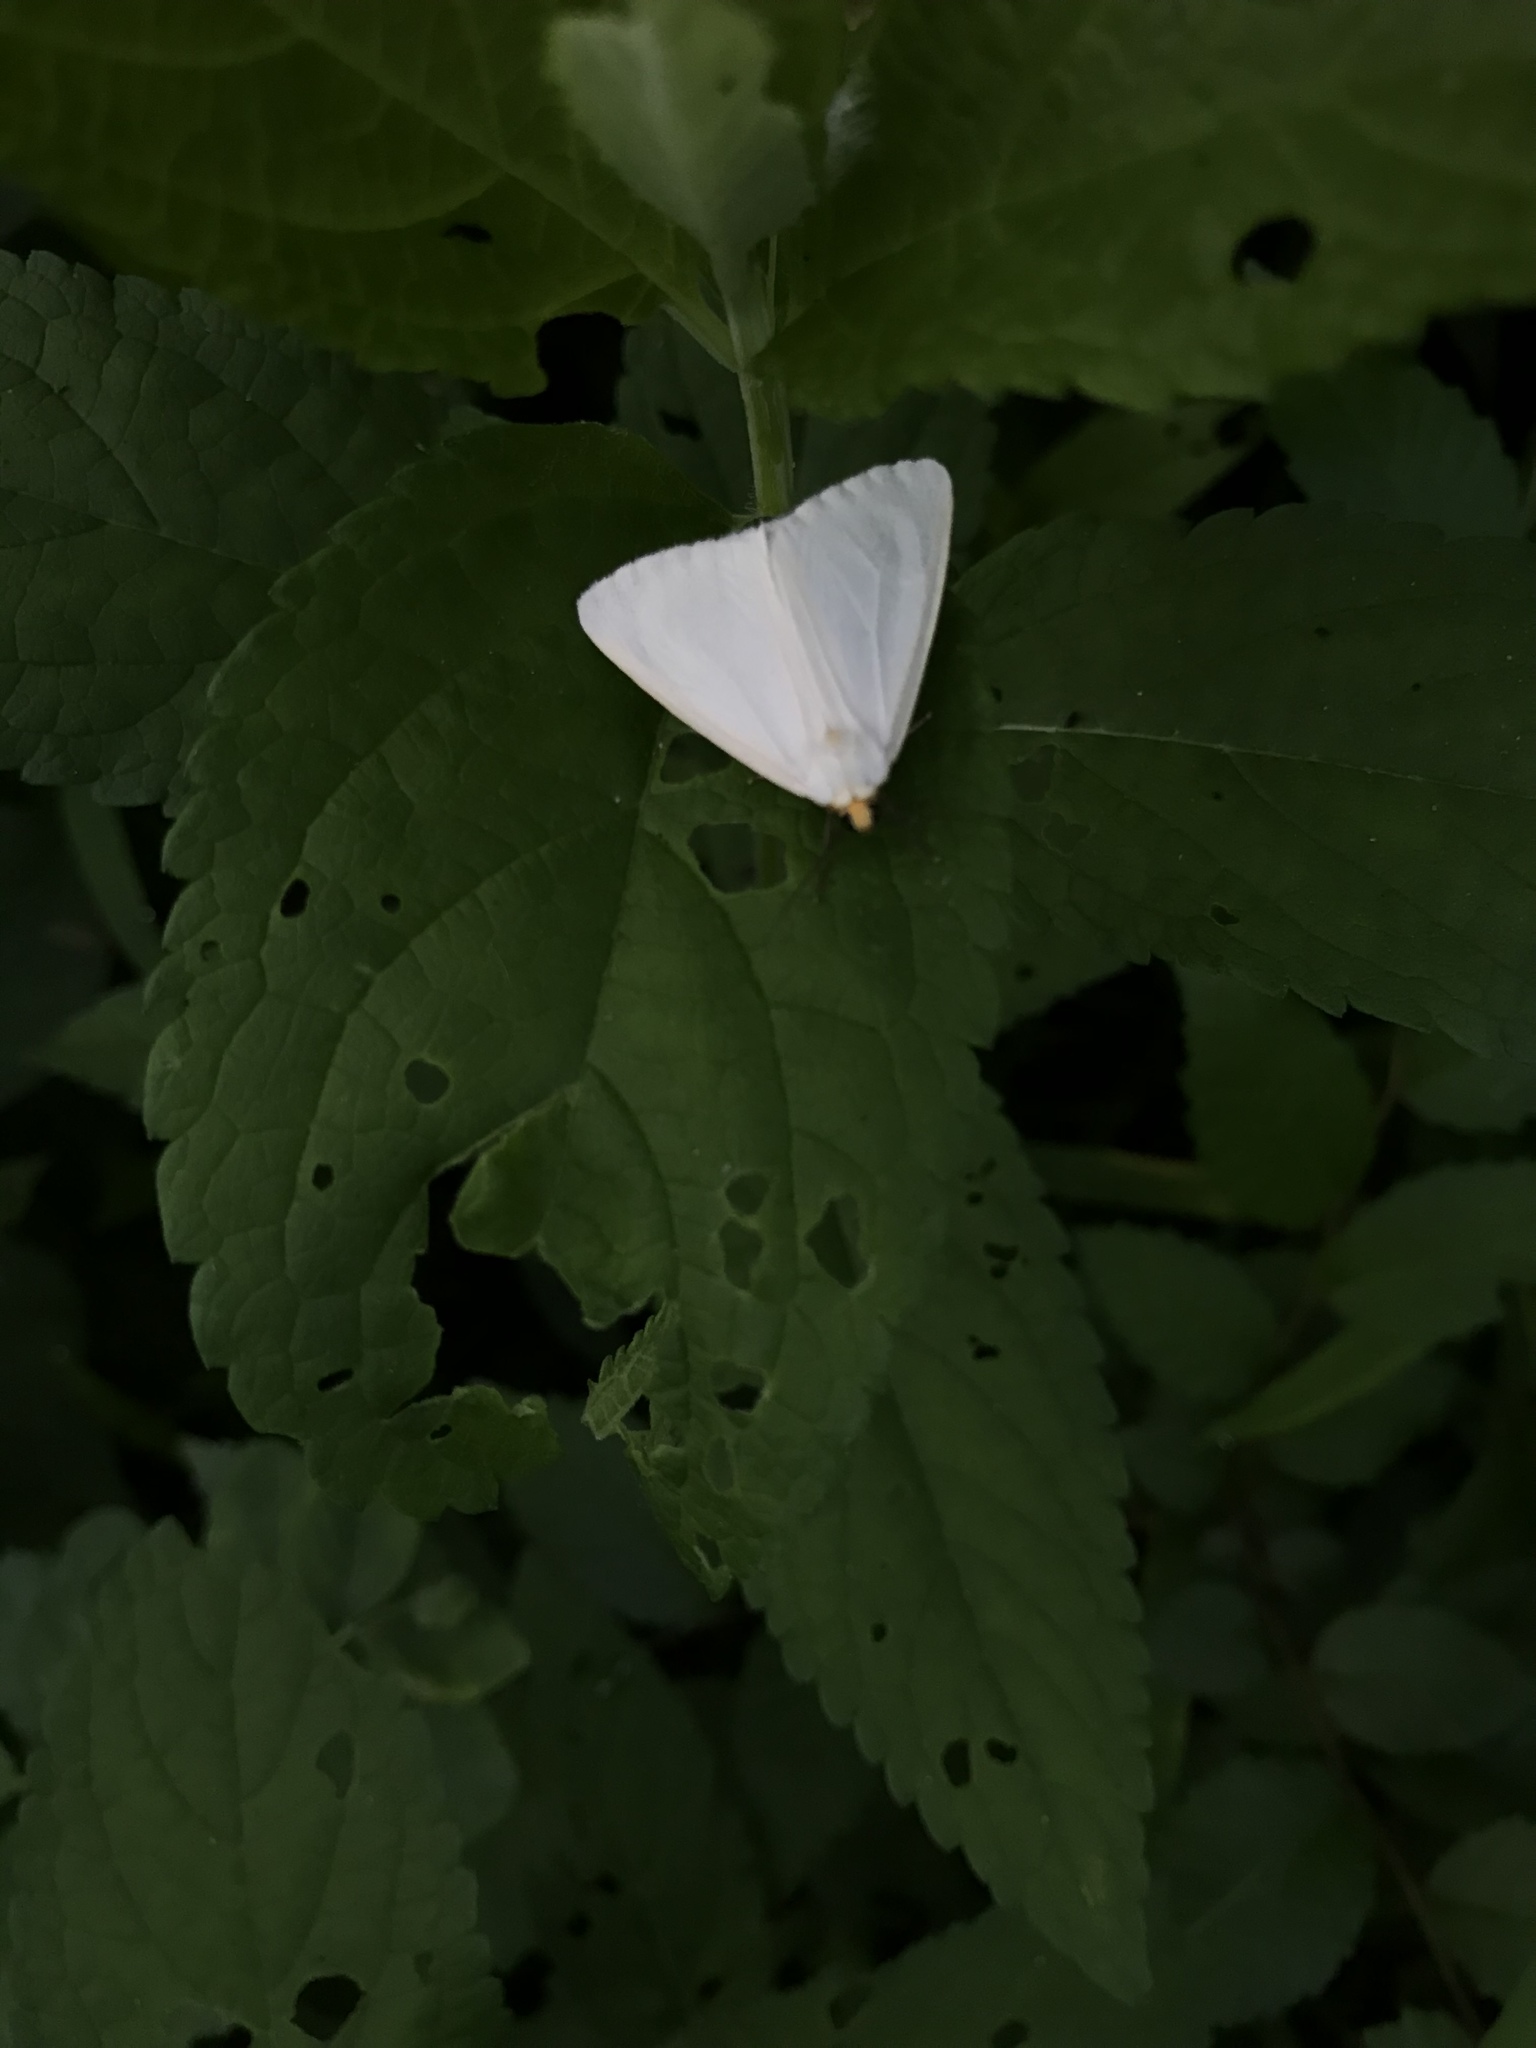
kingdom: Animalia
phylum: Arthropoda
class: Insecta
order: Lepidoptera
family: Erebidae
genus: Cycnia
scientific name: Cycnia tenera
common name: Delicate cycnia moth
